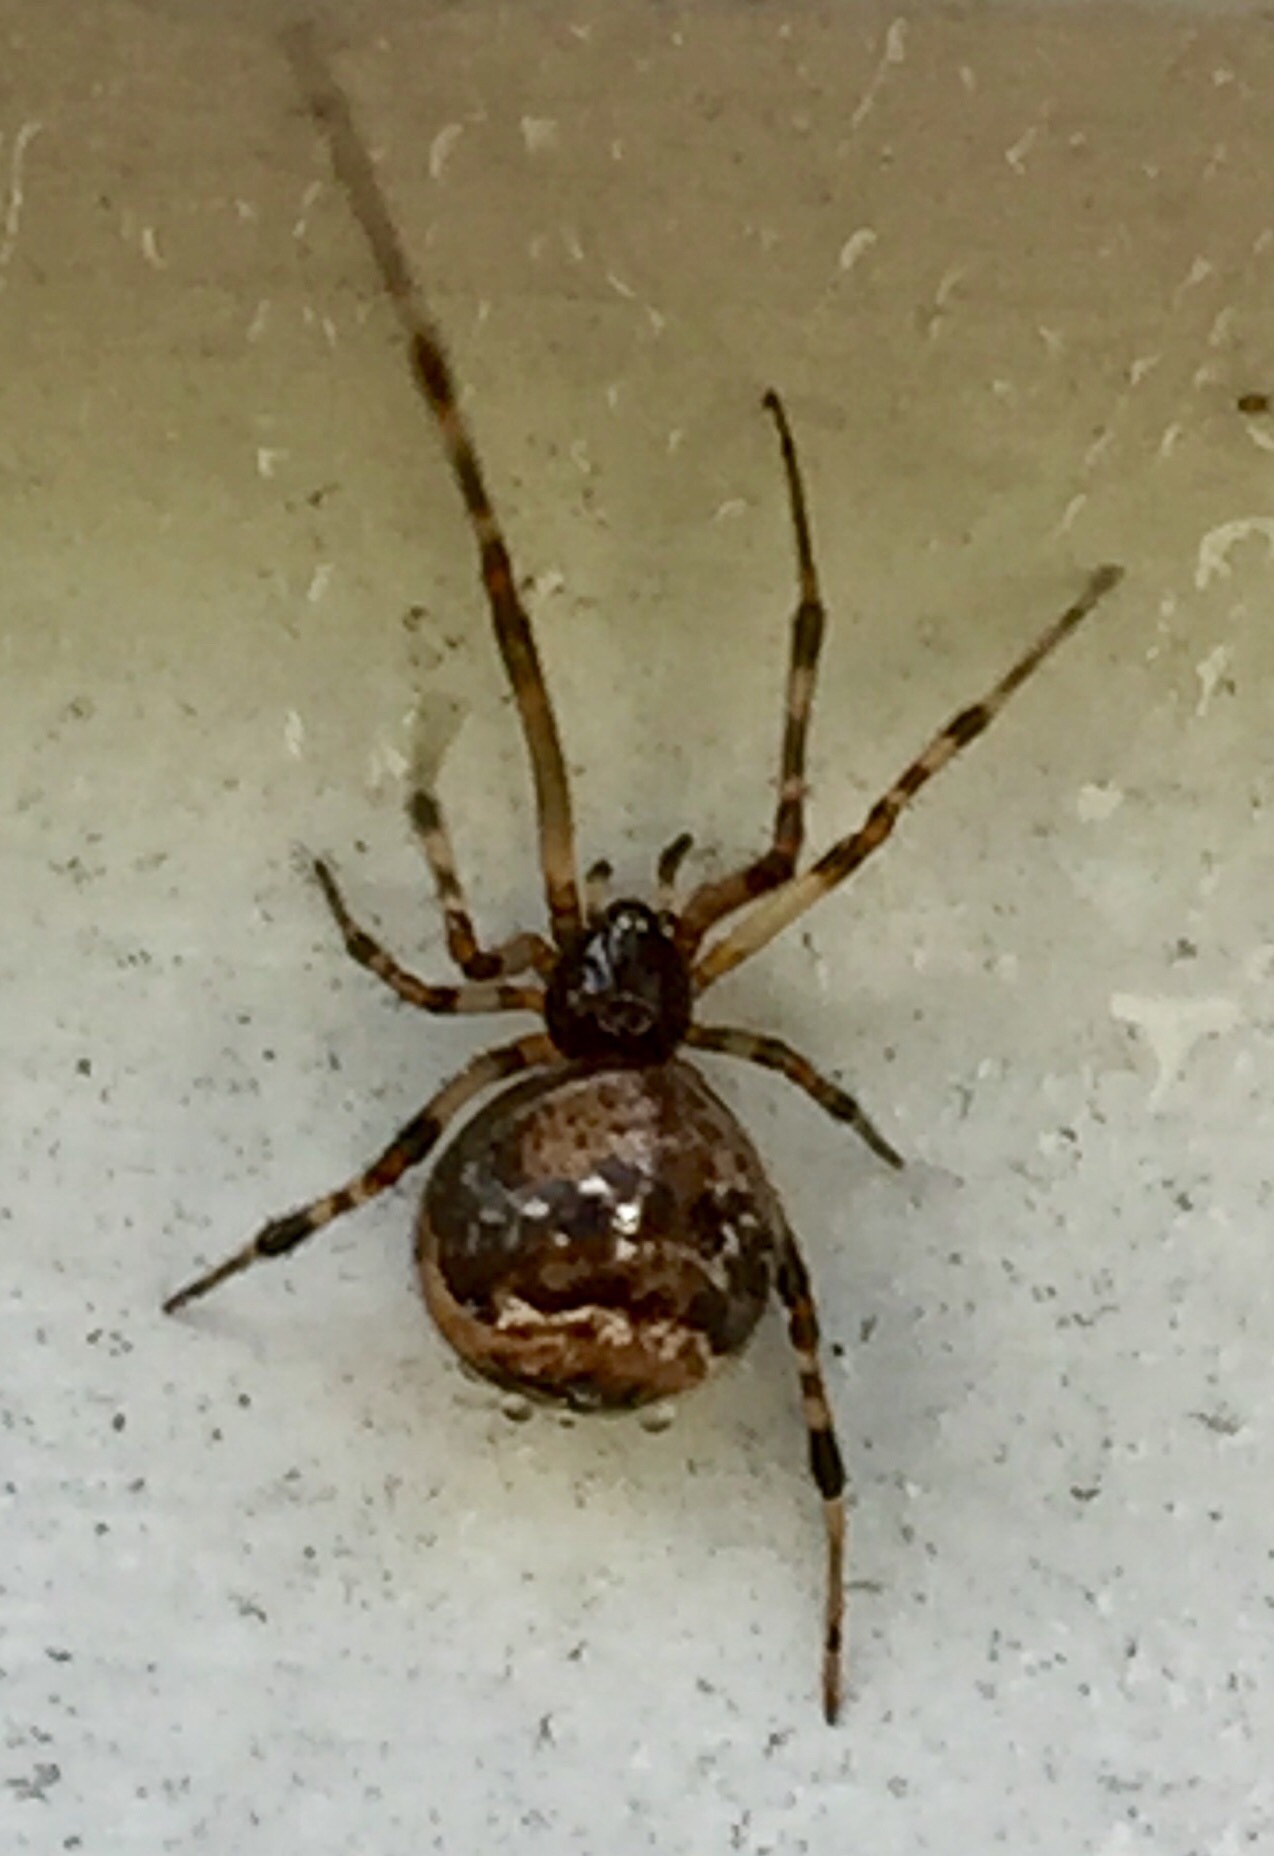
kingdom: Animalia
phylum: Arthropoda
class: Arachnida
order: Araneae
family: Theridiidae
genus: Parasteatoda
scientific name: Parasteatoda tepidariorum
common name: Common house spider
